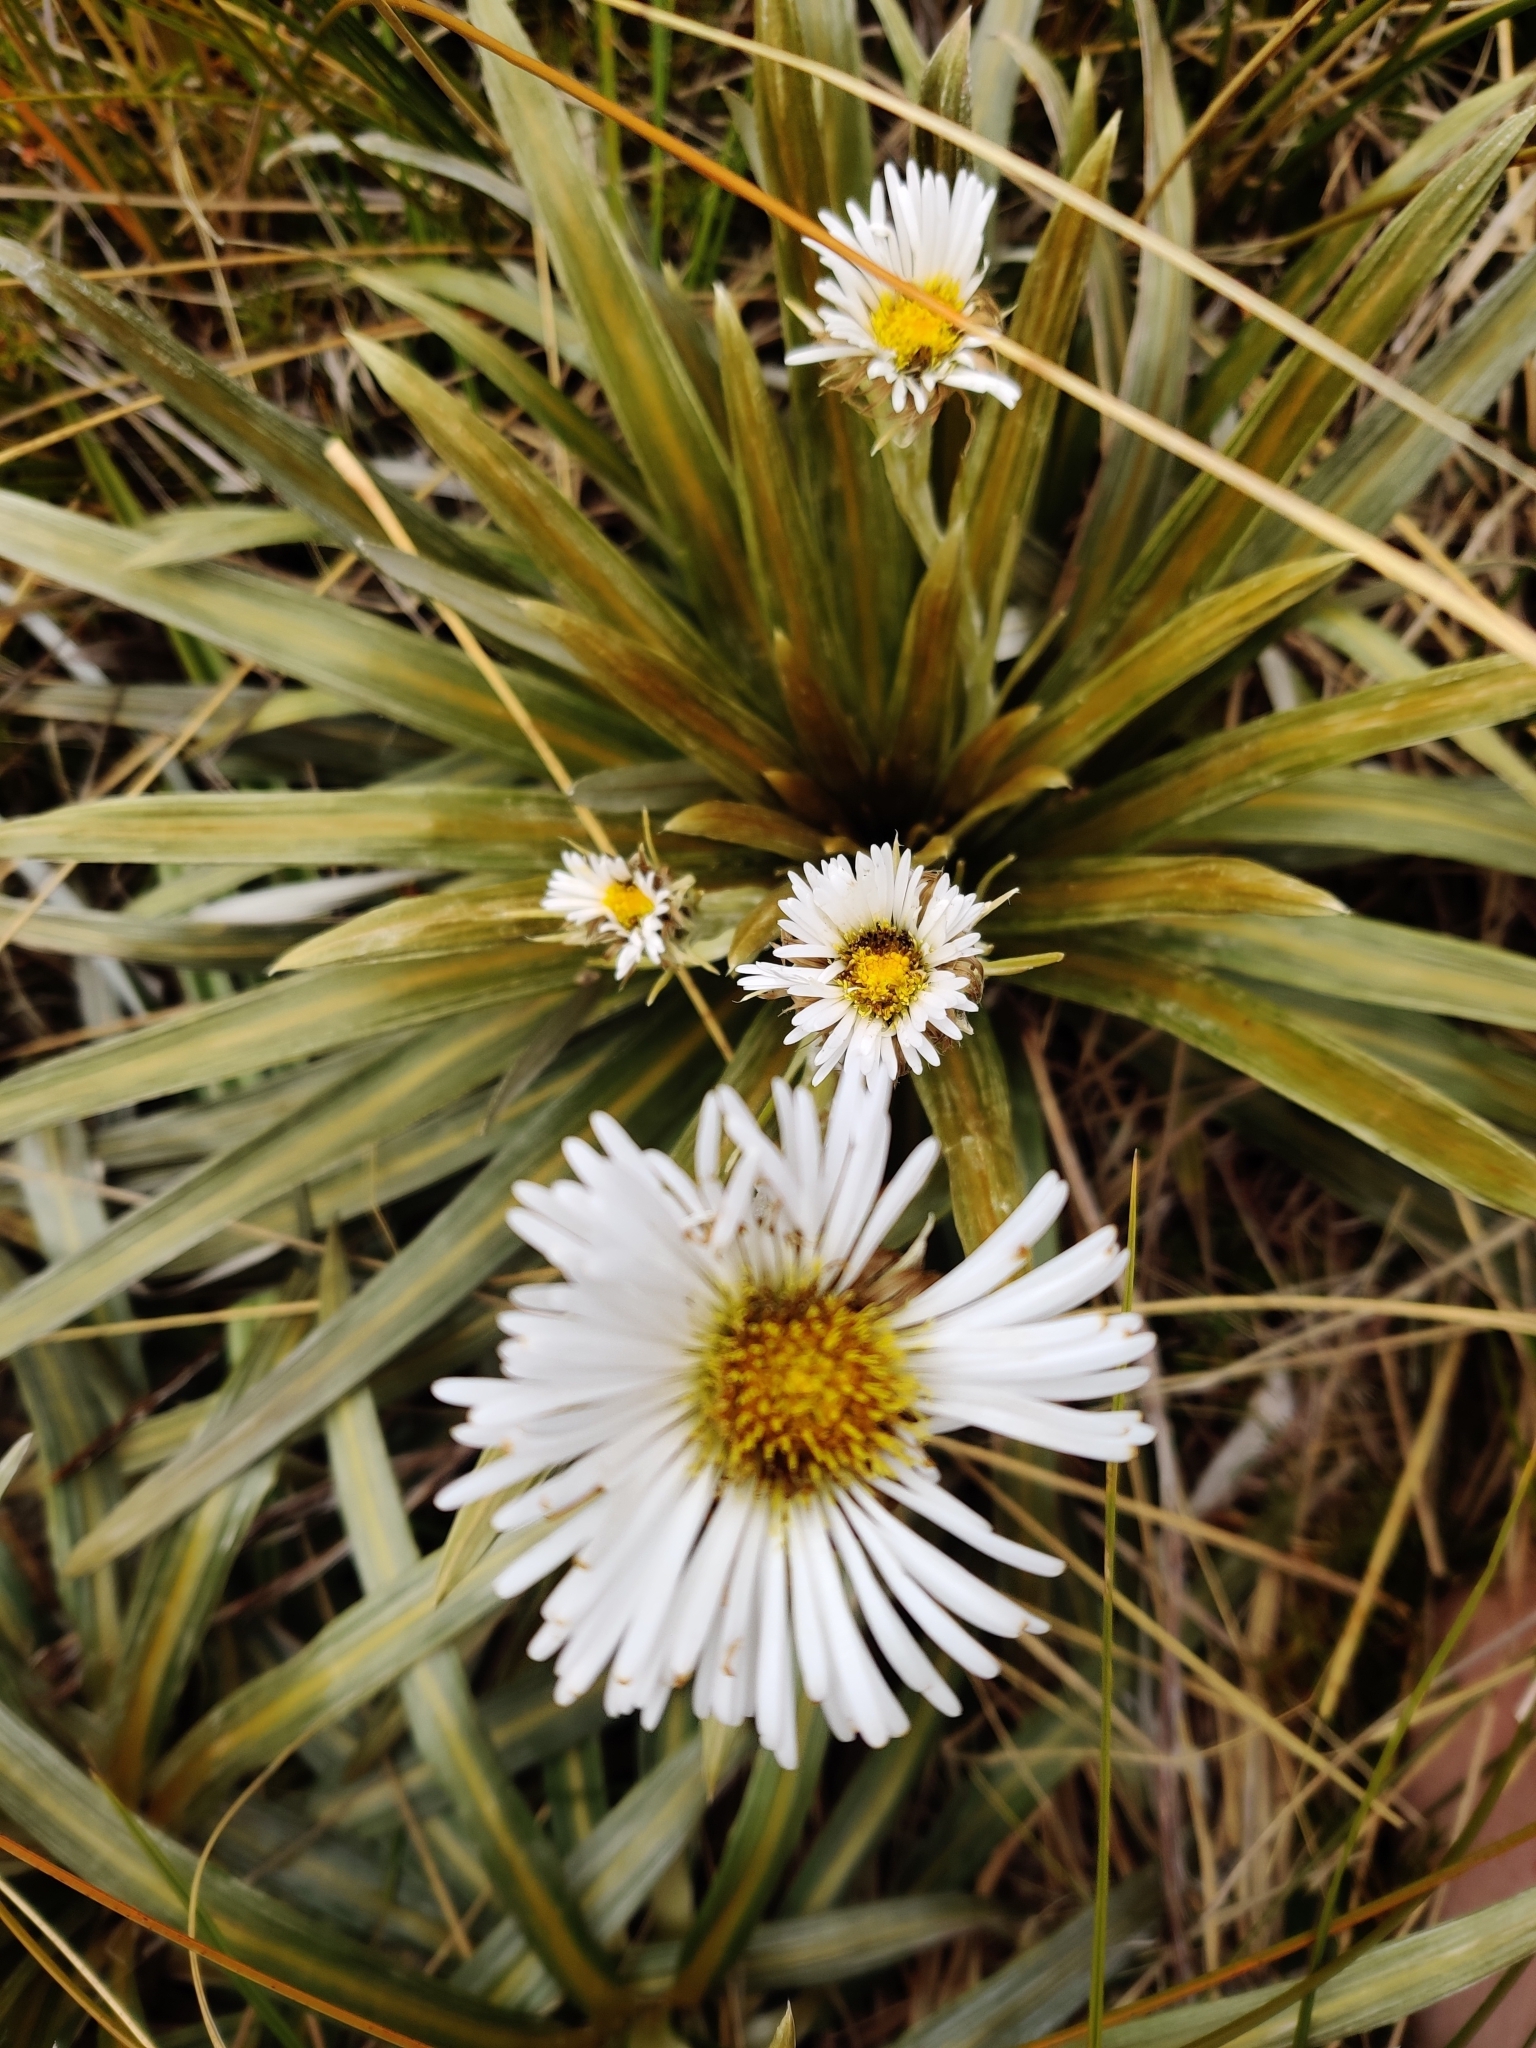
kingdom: Plantae
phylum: Tracheophyta
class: Magnoliopsida
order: Asterales
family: Asteraceae
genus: Celmisia
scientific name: Celmisia armstrongii
